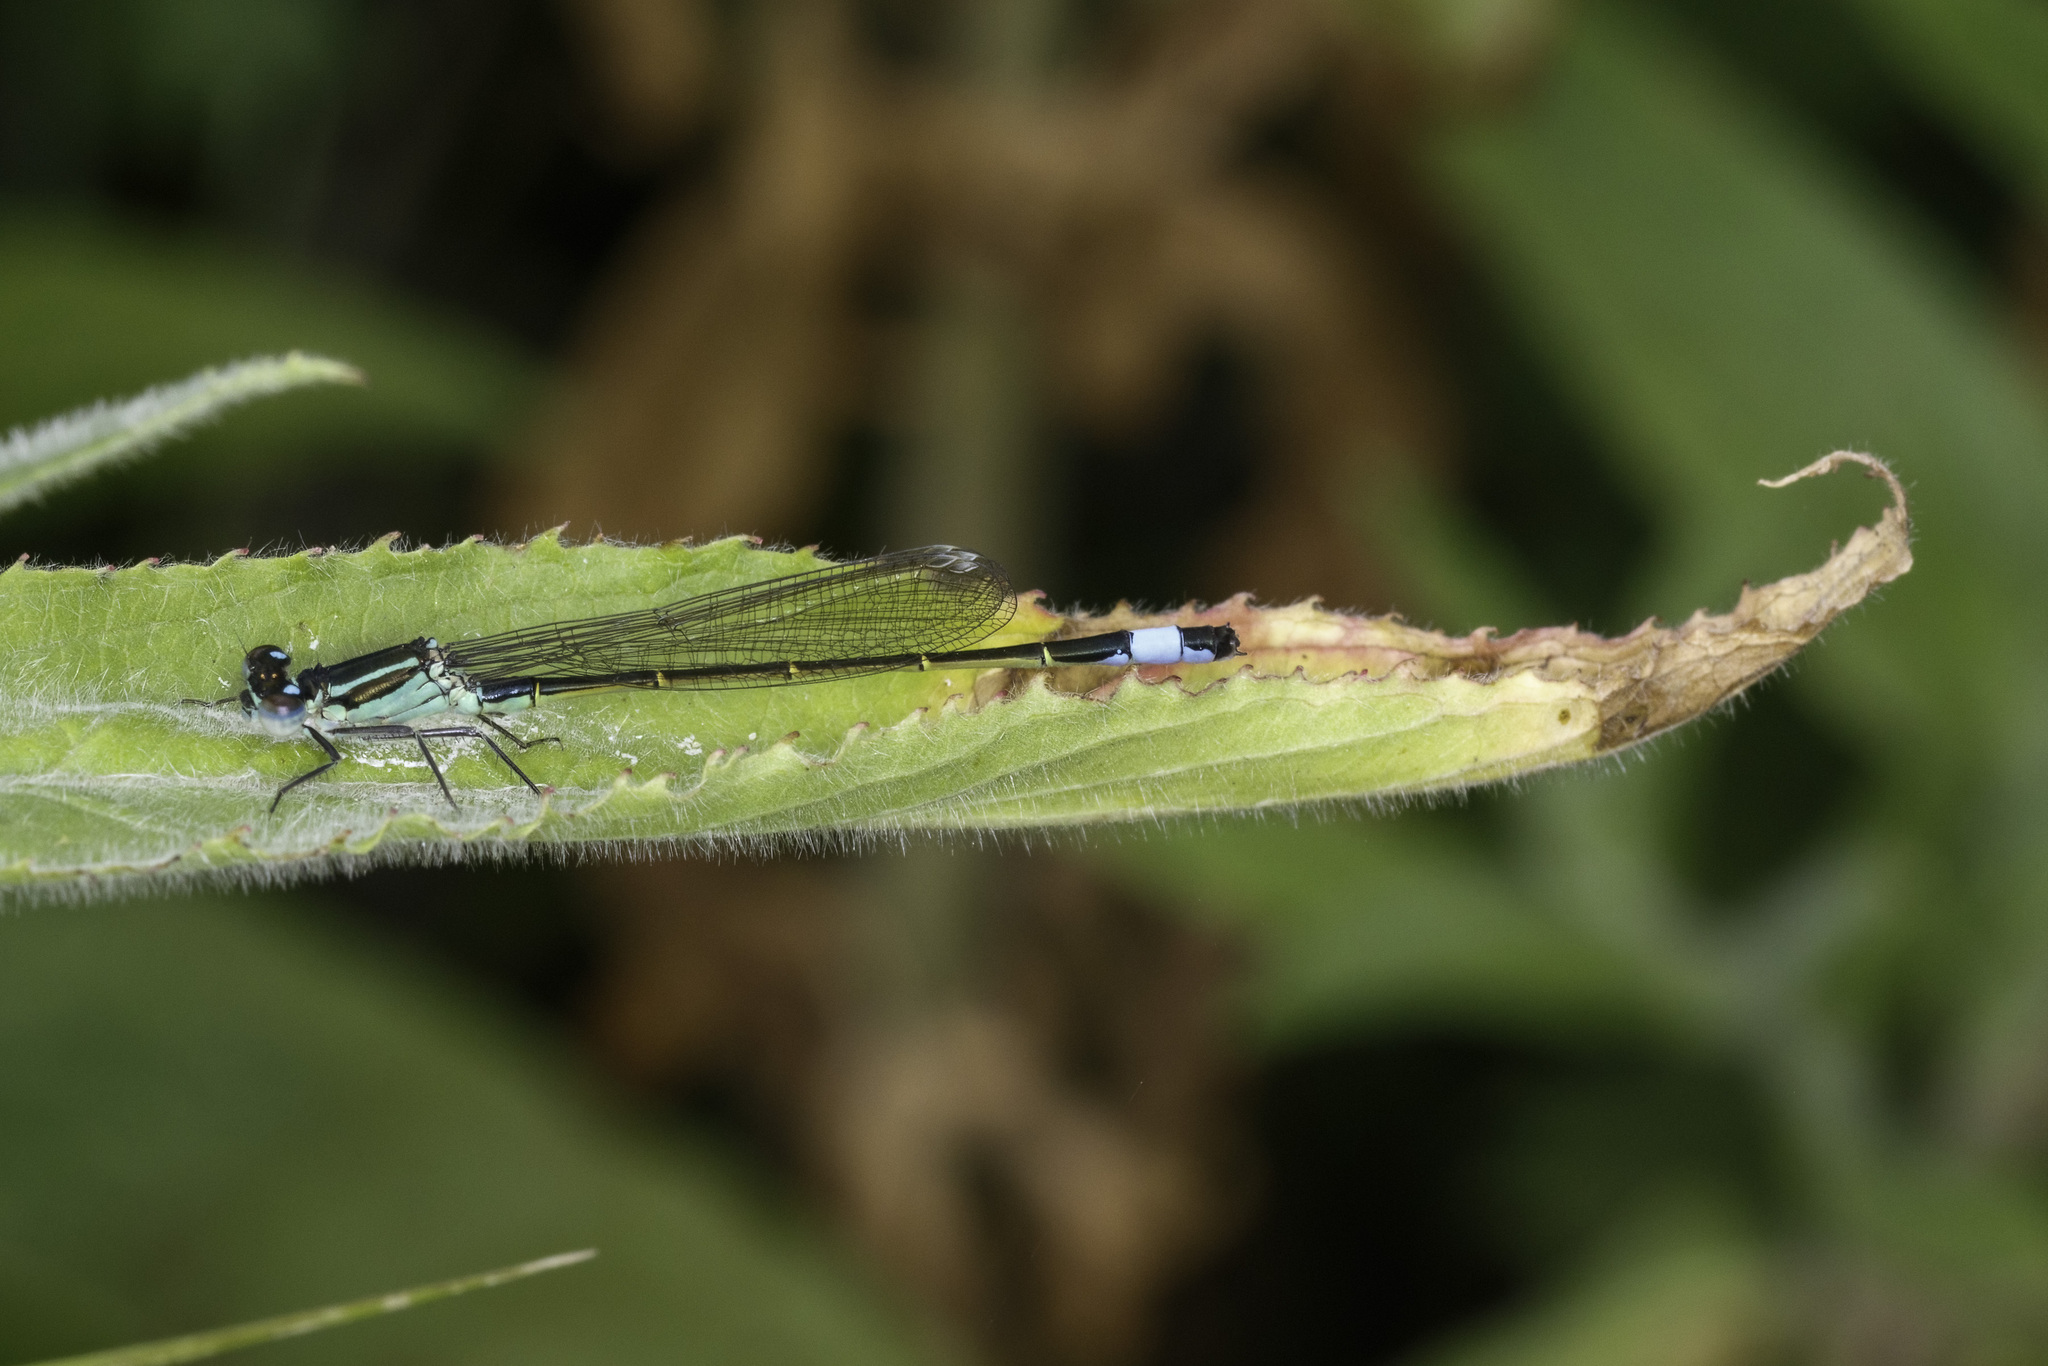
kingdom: Animalia
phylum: Arthropoda
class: Insecta
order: Odonata
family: Coenagrionidae
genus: Ischnura
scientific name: Ischnura elegans
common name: Blue-tailed damselfly
